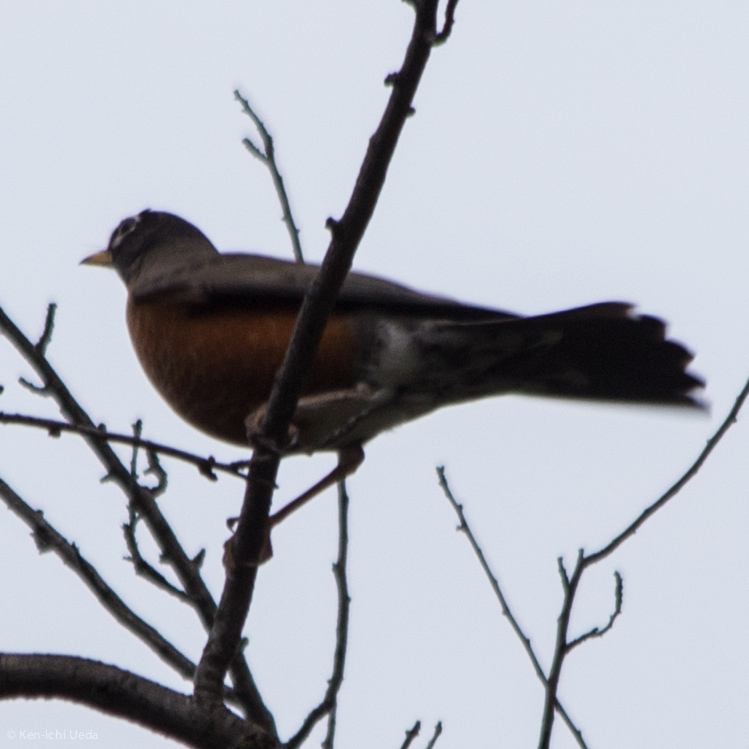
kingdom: Animalia
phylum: Chordata
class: Aves
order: Passeriformes
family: Turdidae
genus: Turdus
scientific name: Turdus migratorius
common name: American robin
